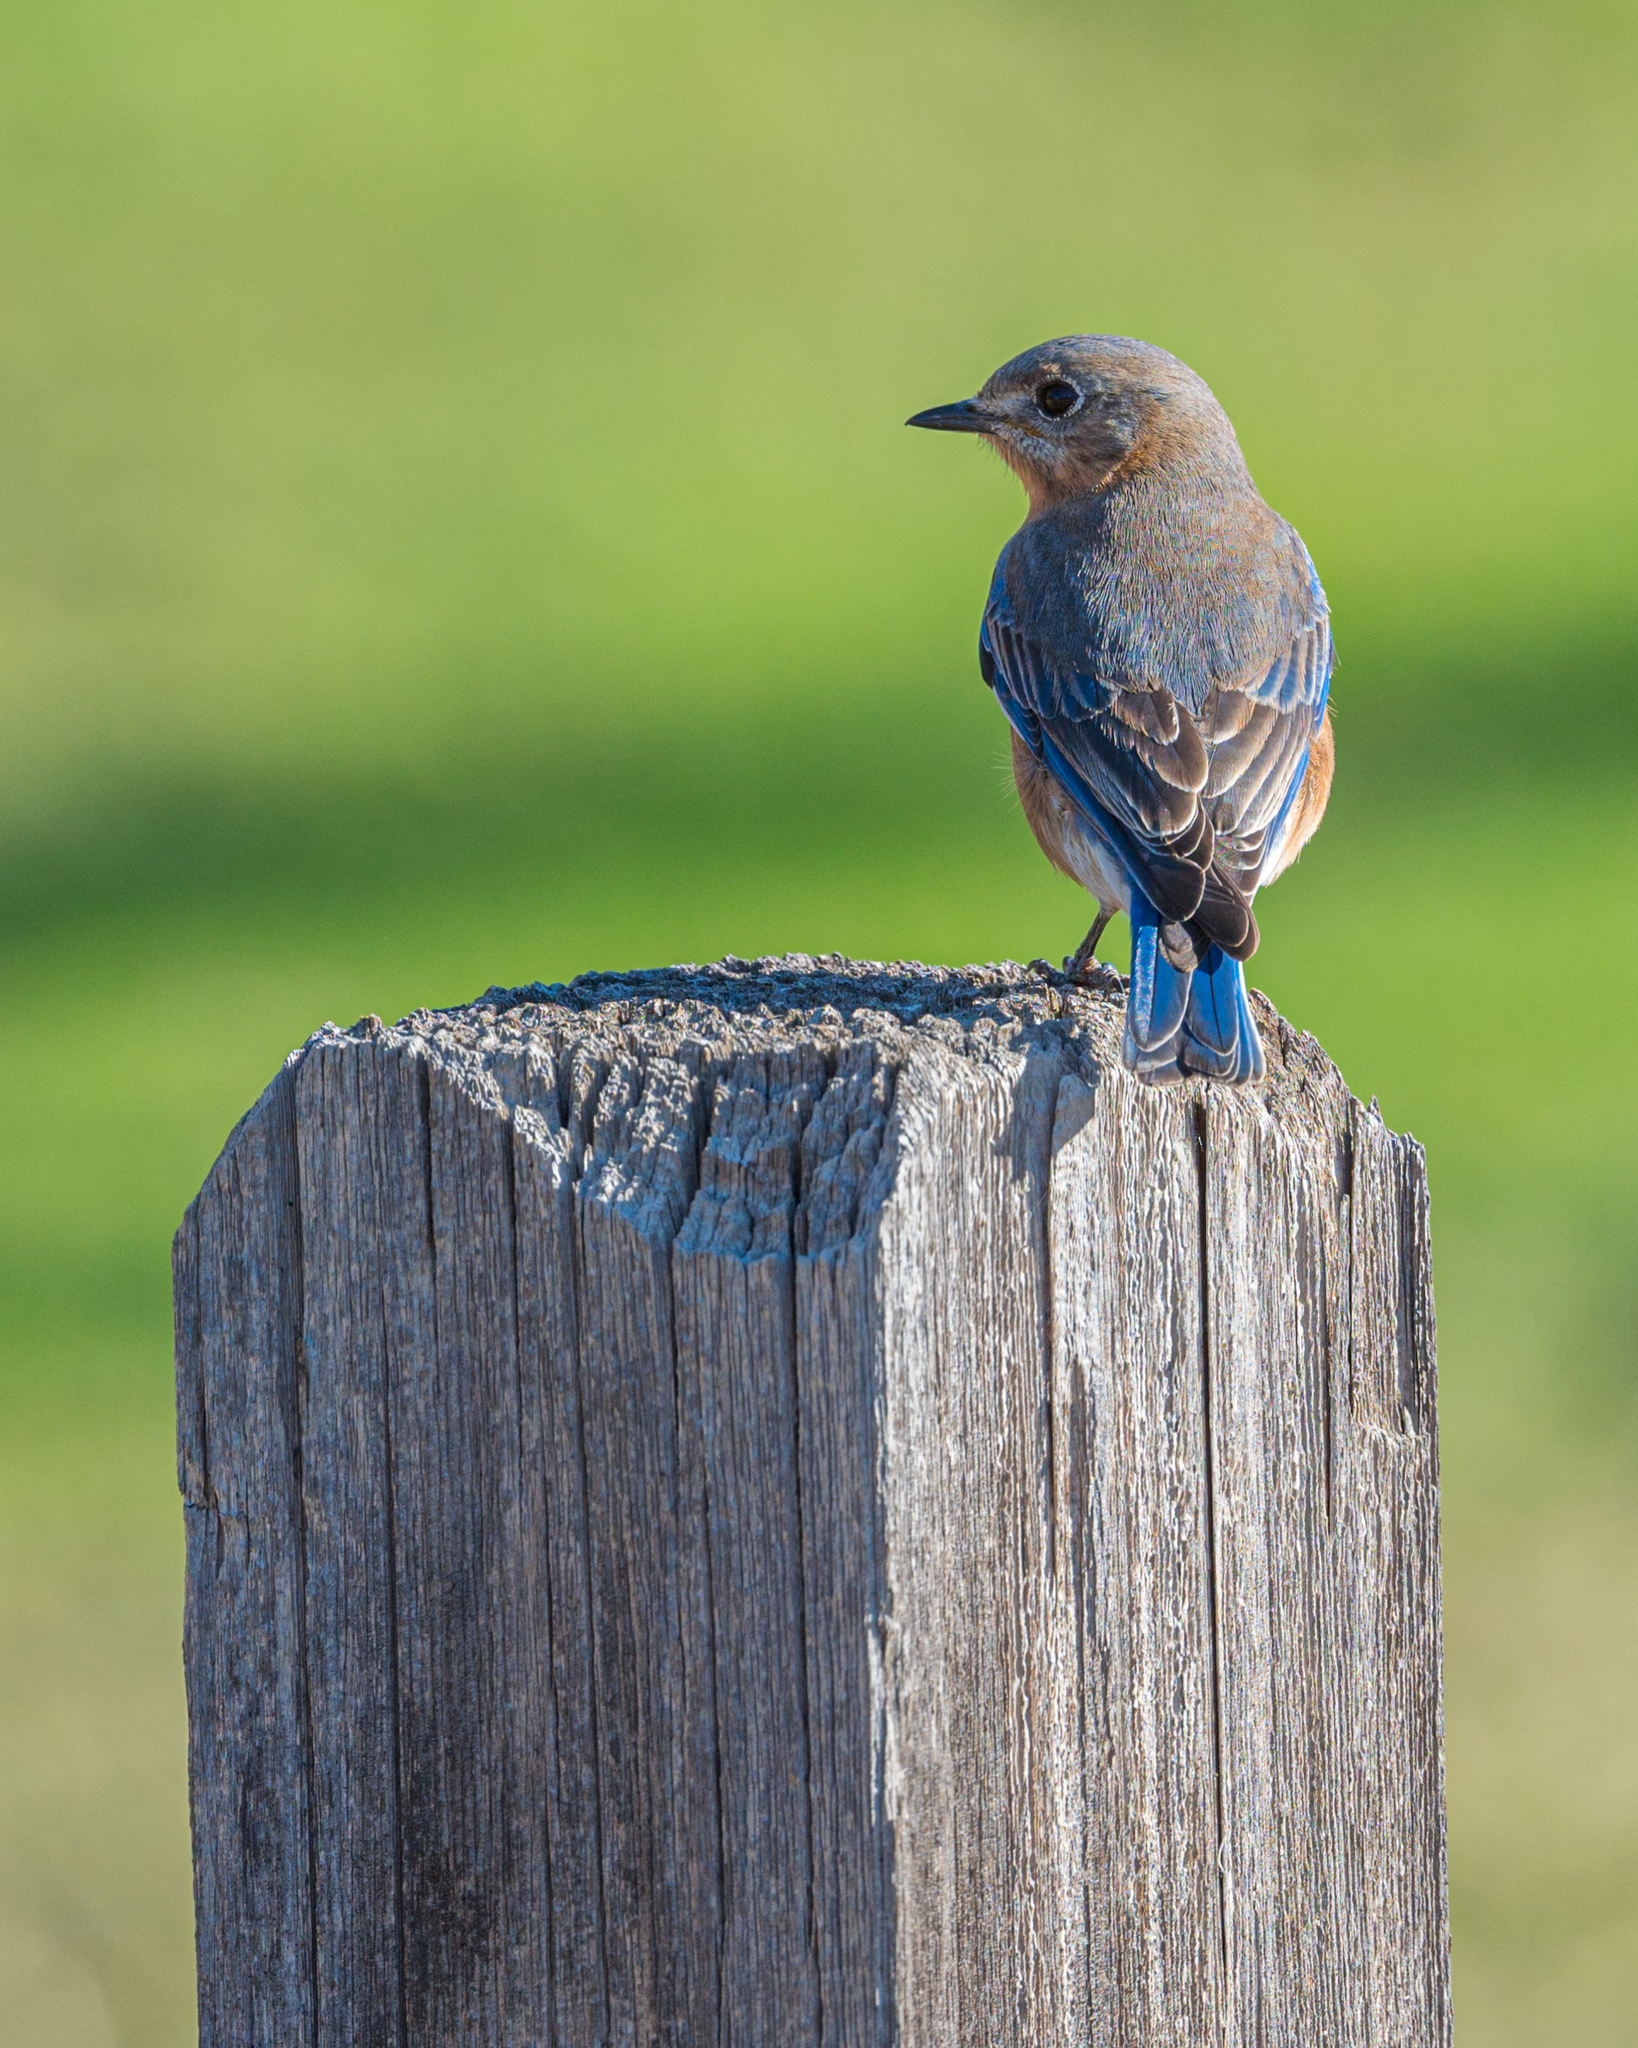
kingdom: Animalia
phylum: Chordata
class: Aves
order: Passeriformes
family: Turdidae
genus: Sialia
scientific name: Sialia sialis
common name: Eastern bluebird
